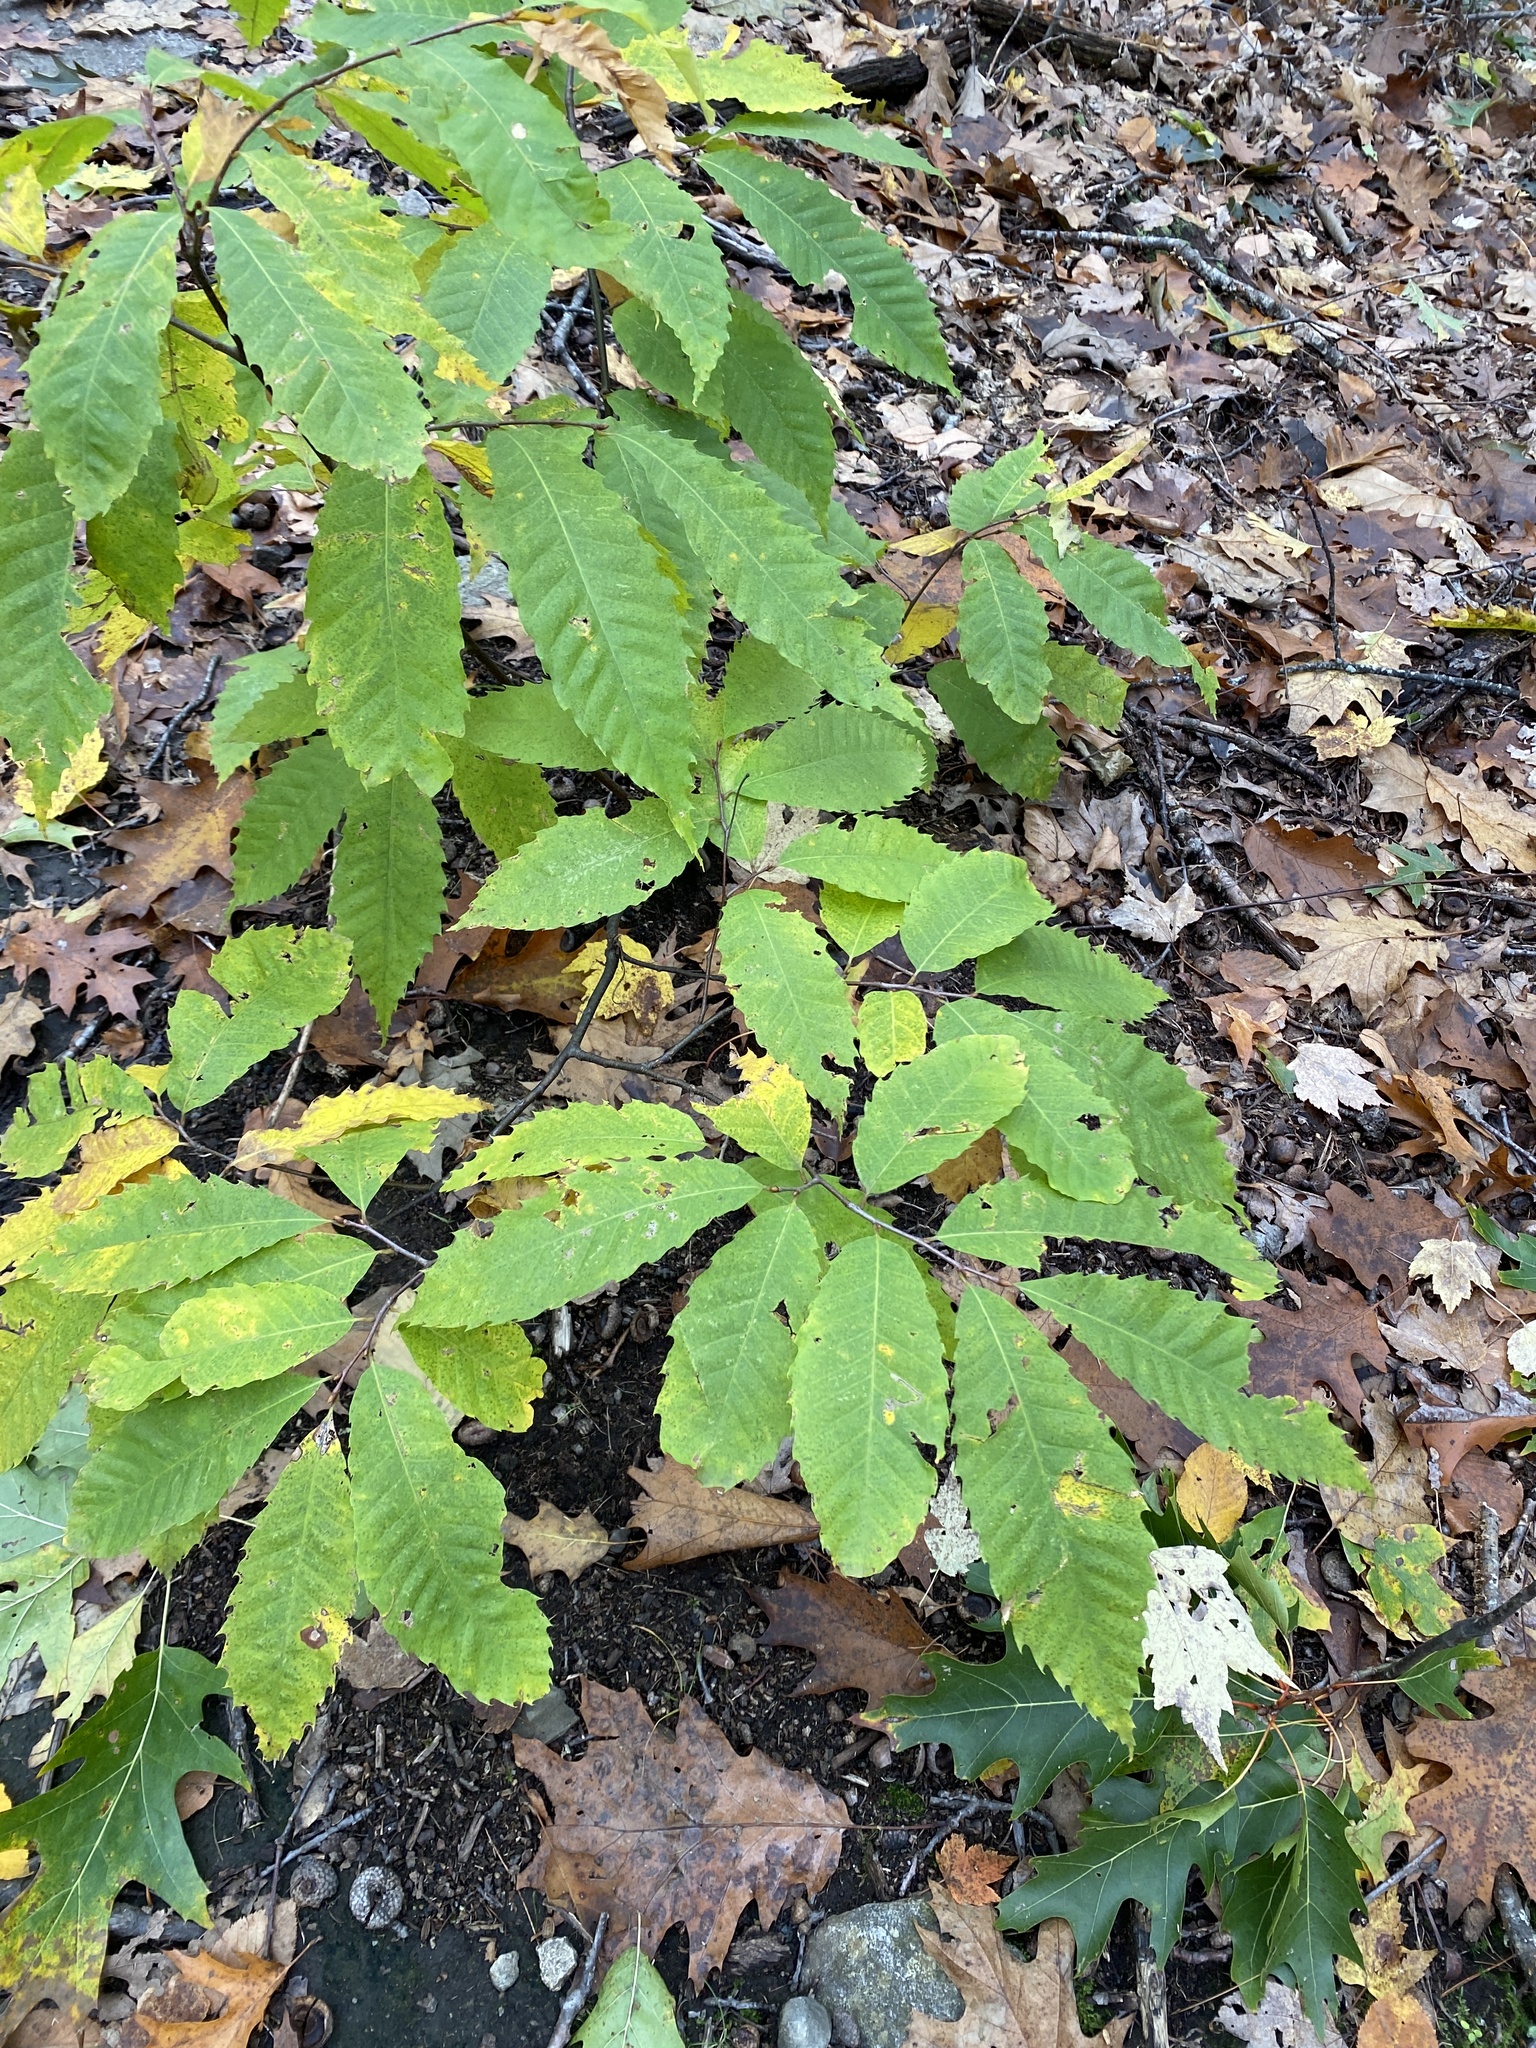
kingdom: Plantae
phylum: Tracheophyta
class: Magnoliopsida
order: Fagales
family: Fagaceae
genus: Castanea
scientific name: Castanea dentata
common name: American chestnut
